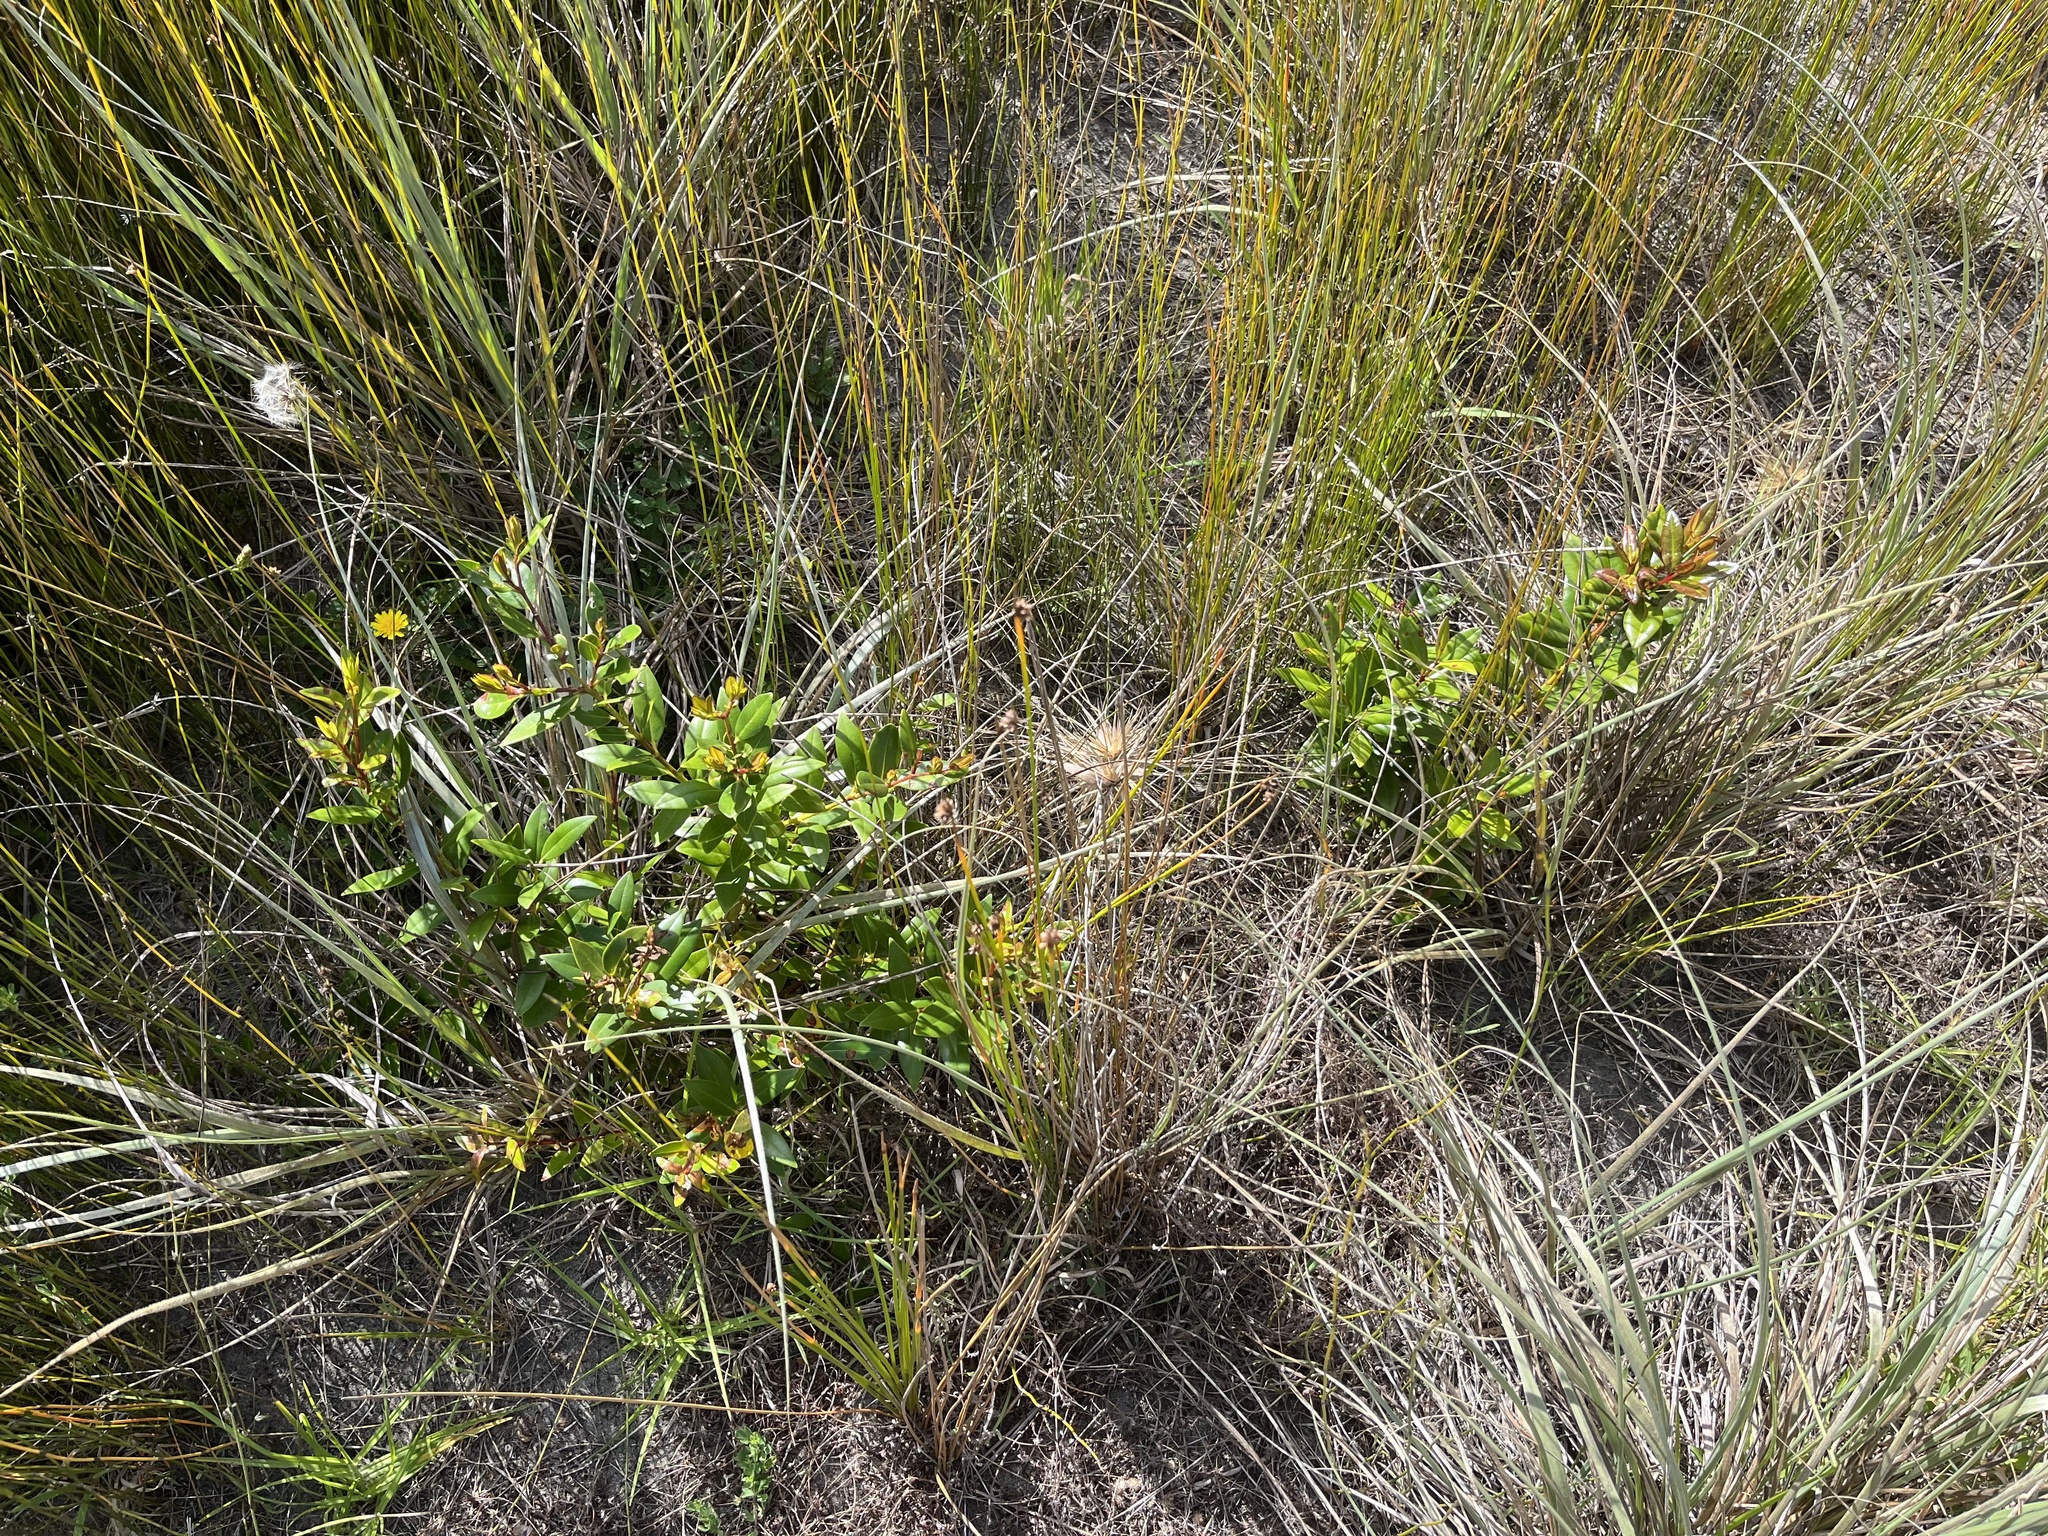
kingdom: Plantae
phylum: Tracheophyta
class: Magnoliopsida
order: Myrtales
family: Myrtaceae
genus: Metrosideros
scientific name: Metrosideros excelsa
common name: New zealand christmastree
